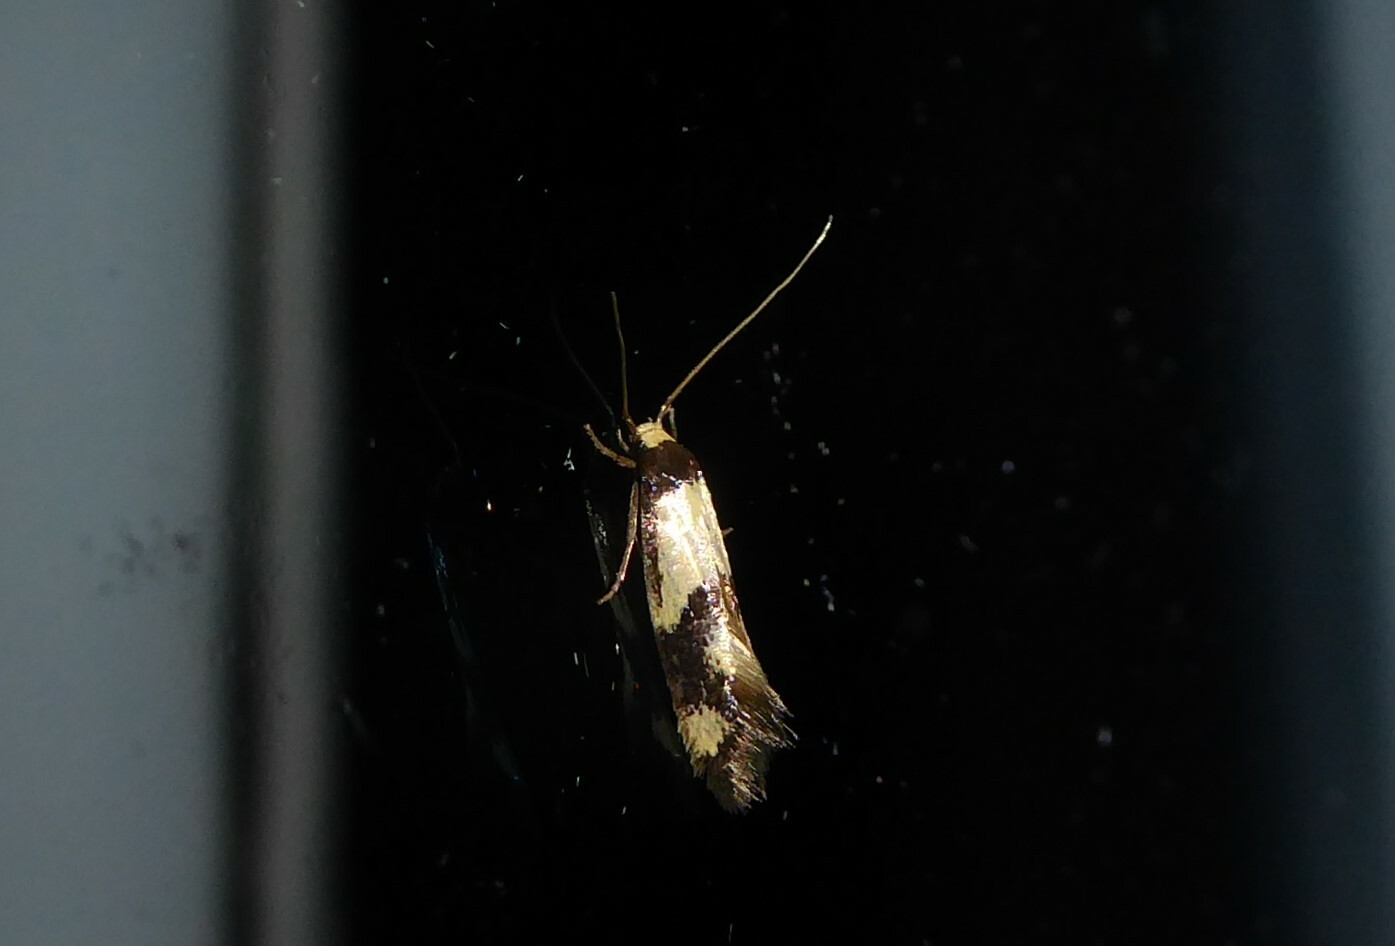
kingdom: Animalia
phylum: Arthropoda
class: Insecta
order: Lepidoptera
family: Tineidae
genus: Opogona
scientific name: Opogona comptella
